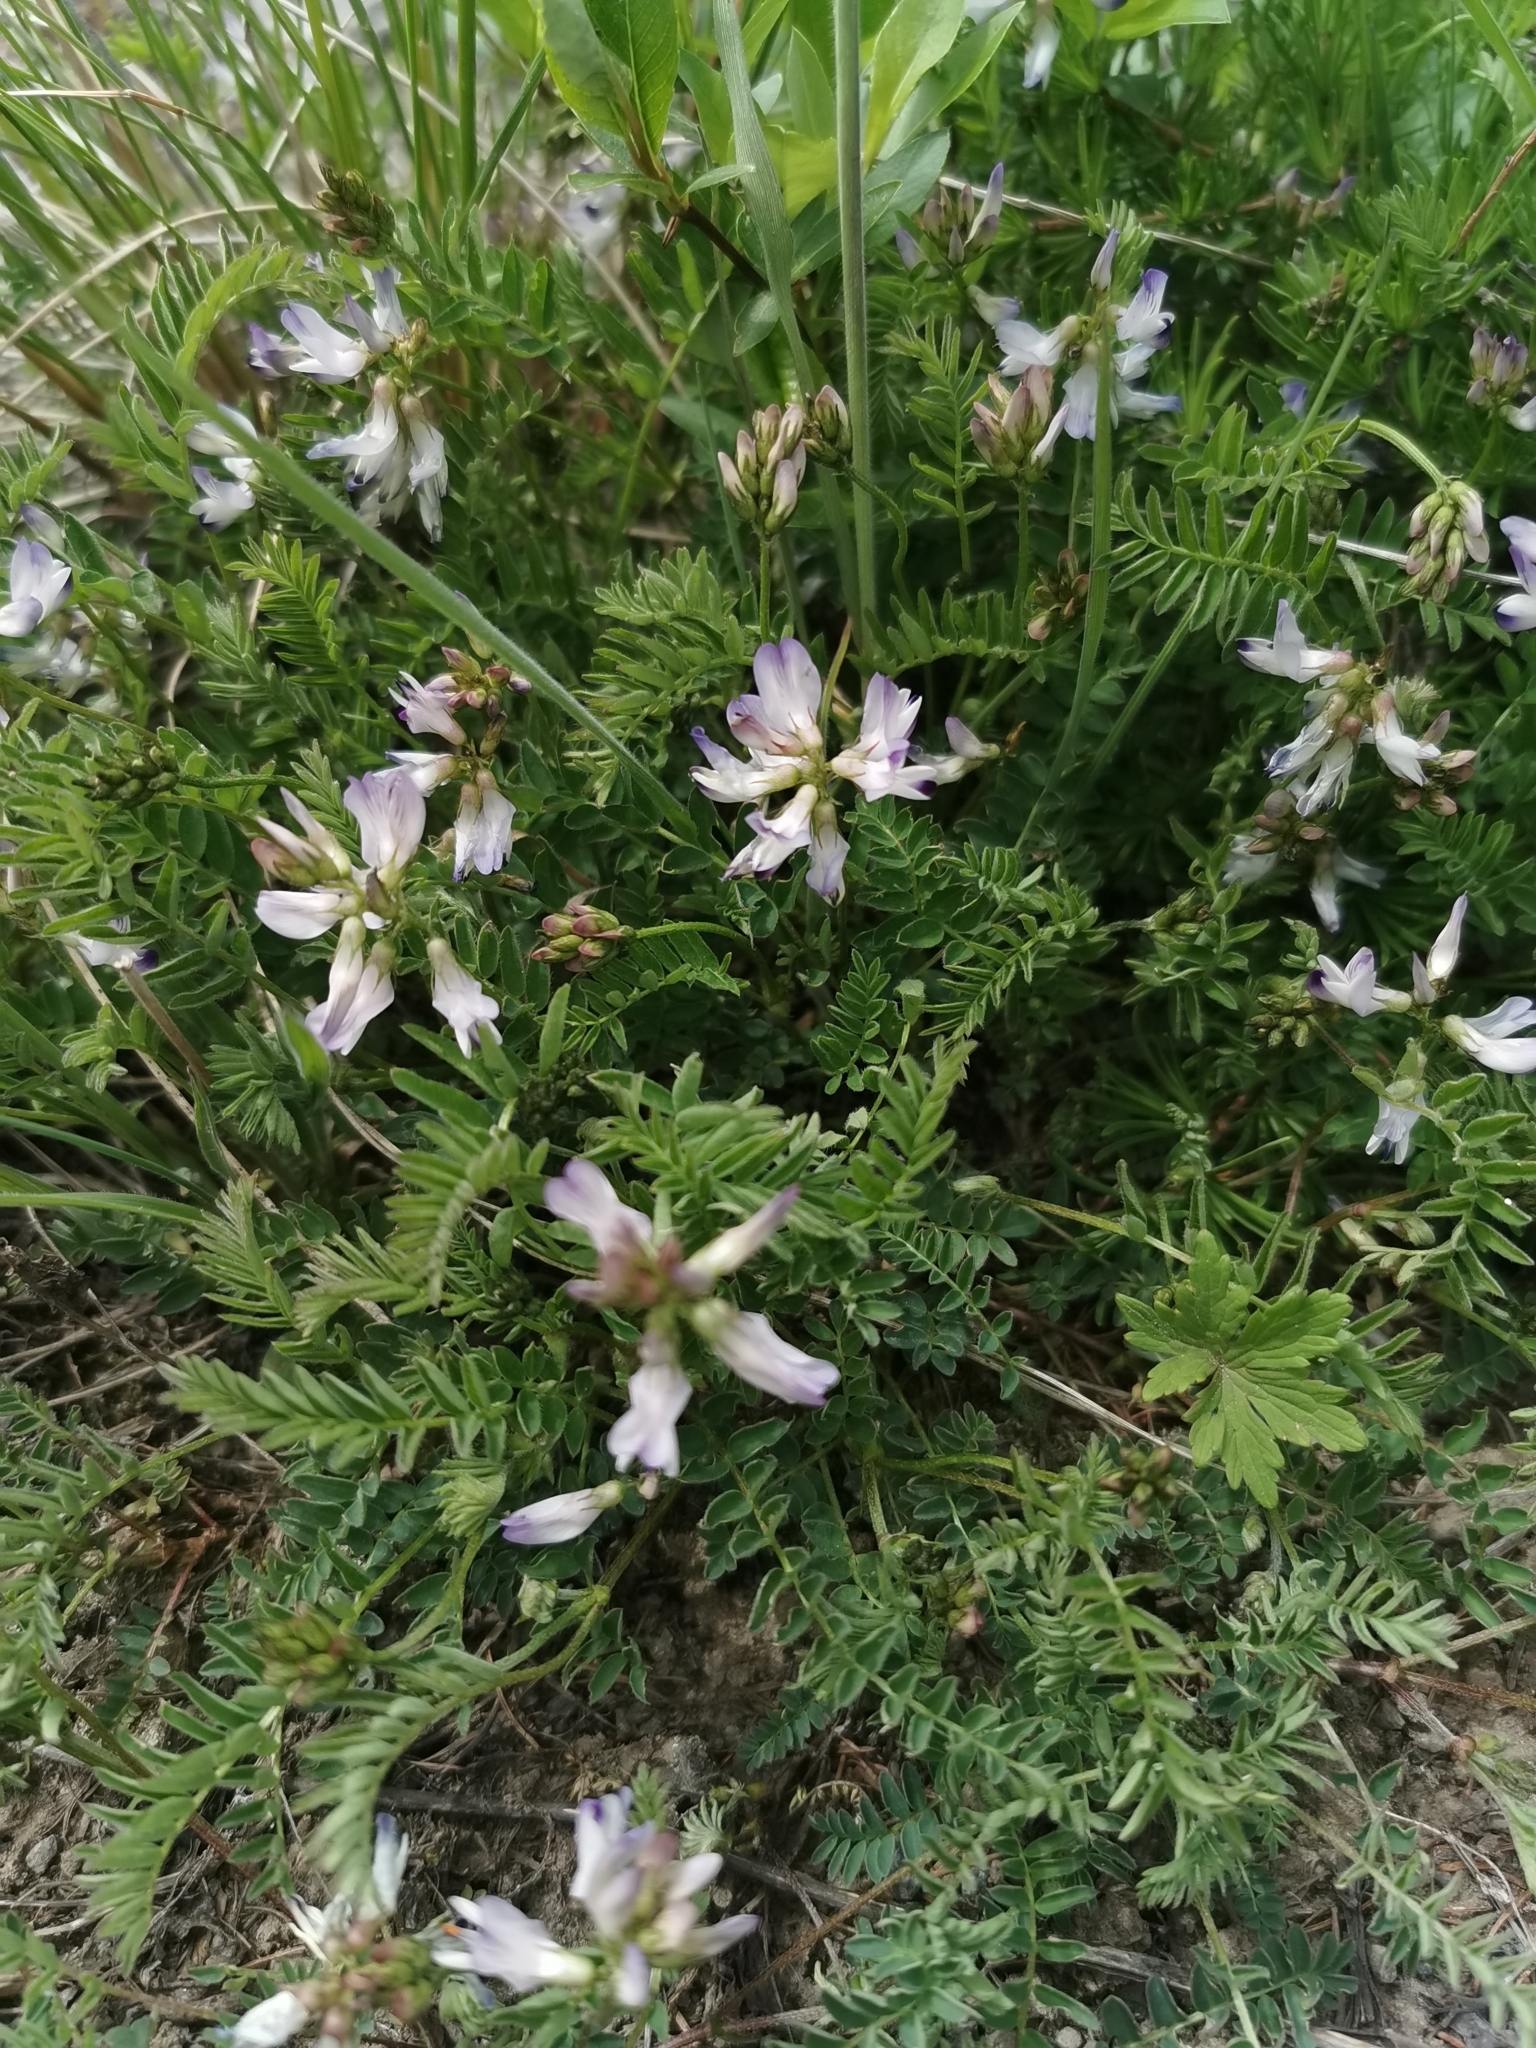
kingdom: Plantae
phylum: Tracheophyta
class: Magnoliopsida
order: Fabales
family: Fabaceae
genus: Astragalus
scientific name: Astragalus alpinus
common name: Alpine milk-vetch
